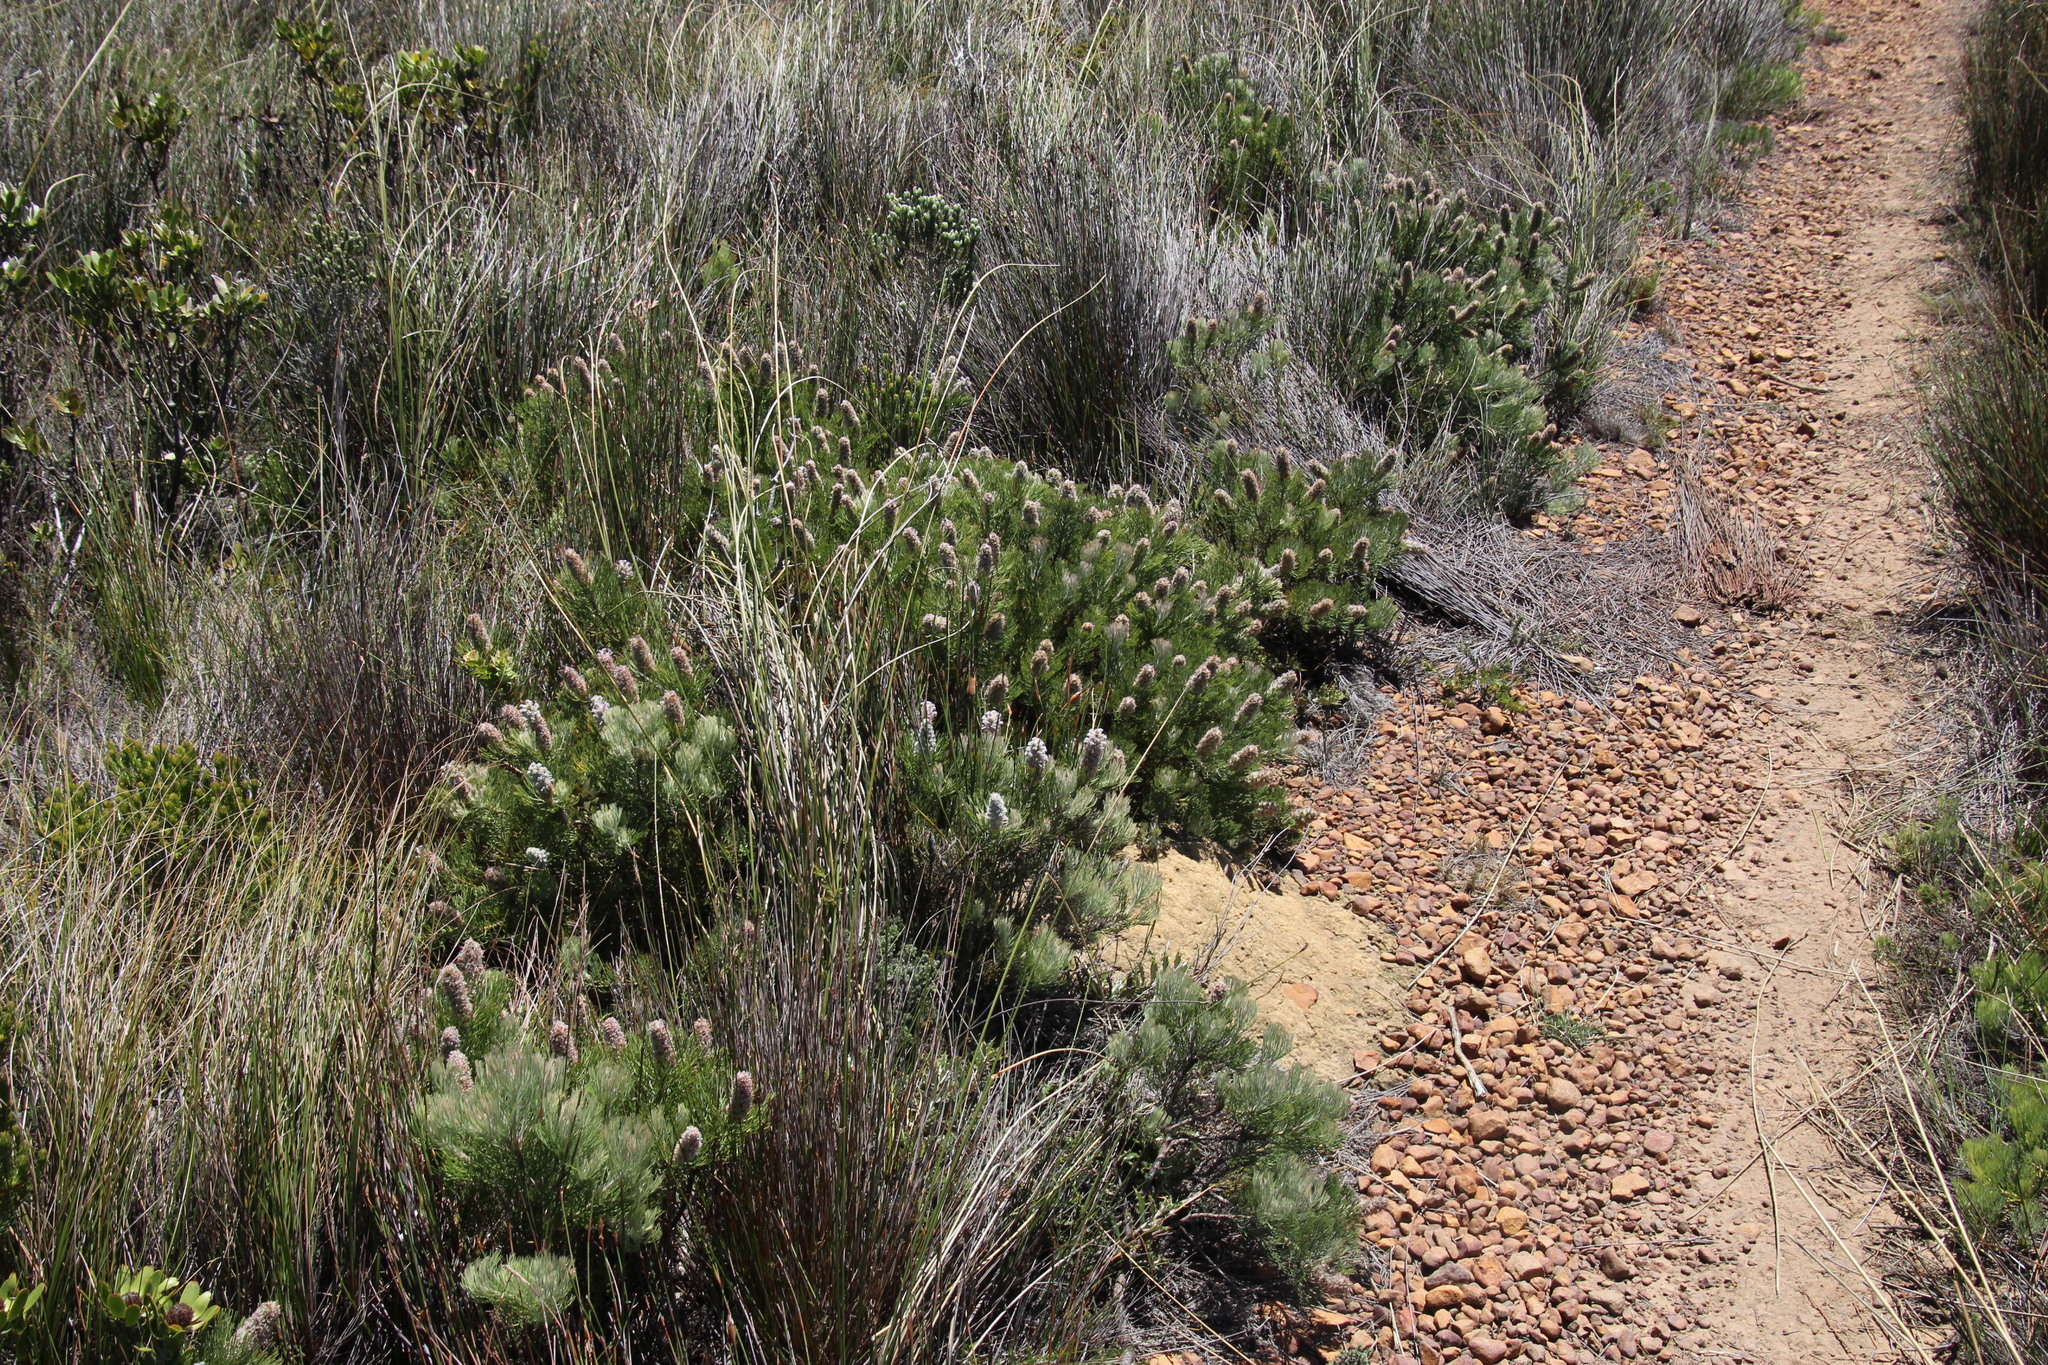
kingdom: Plantae
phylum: Tracheophyta
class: Magnoliopsida
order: Proteales
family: Proteaceae
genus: Paranomus
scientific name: Paranomus lagopus
